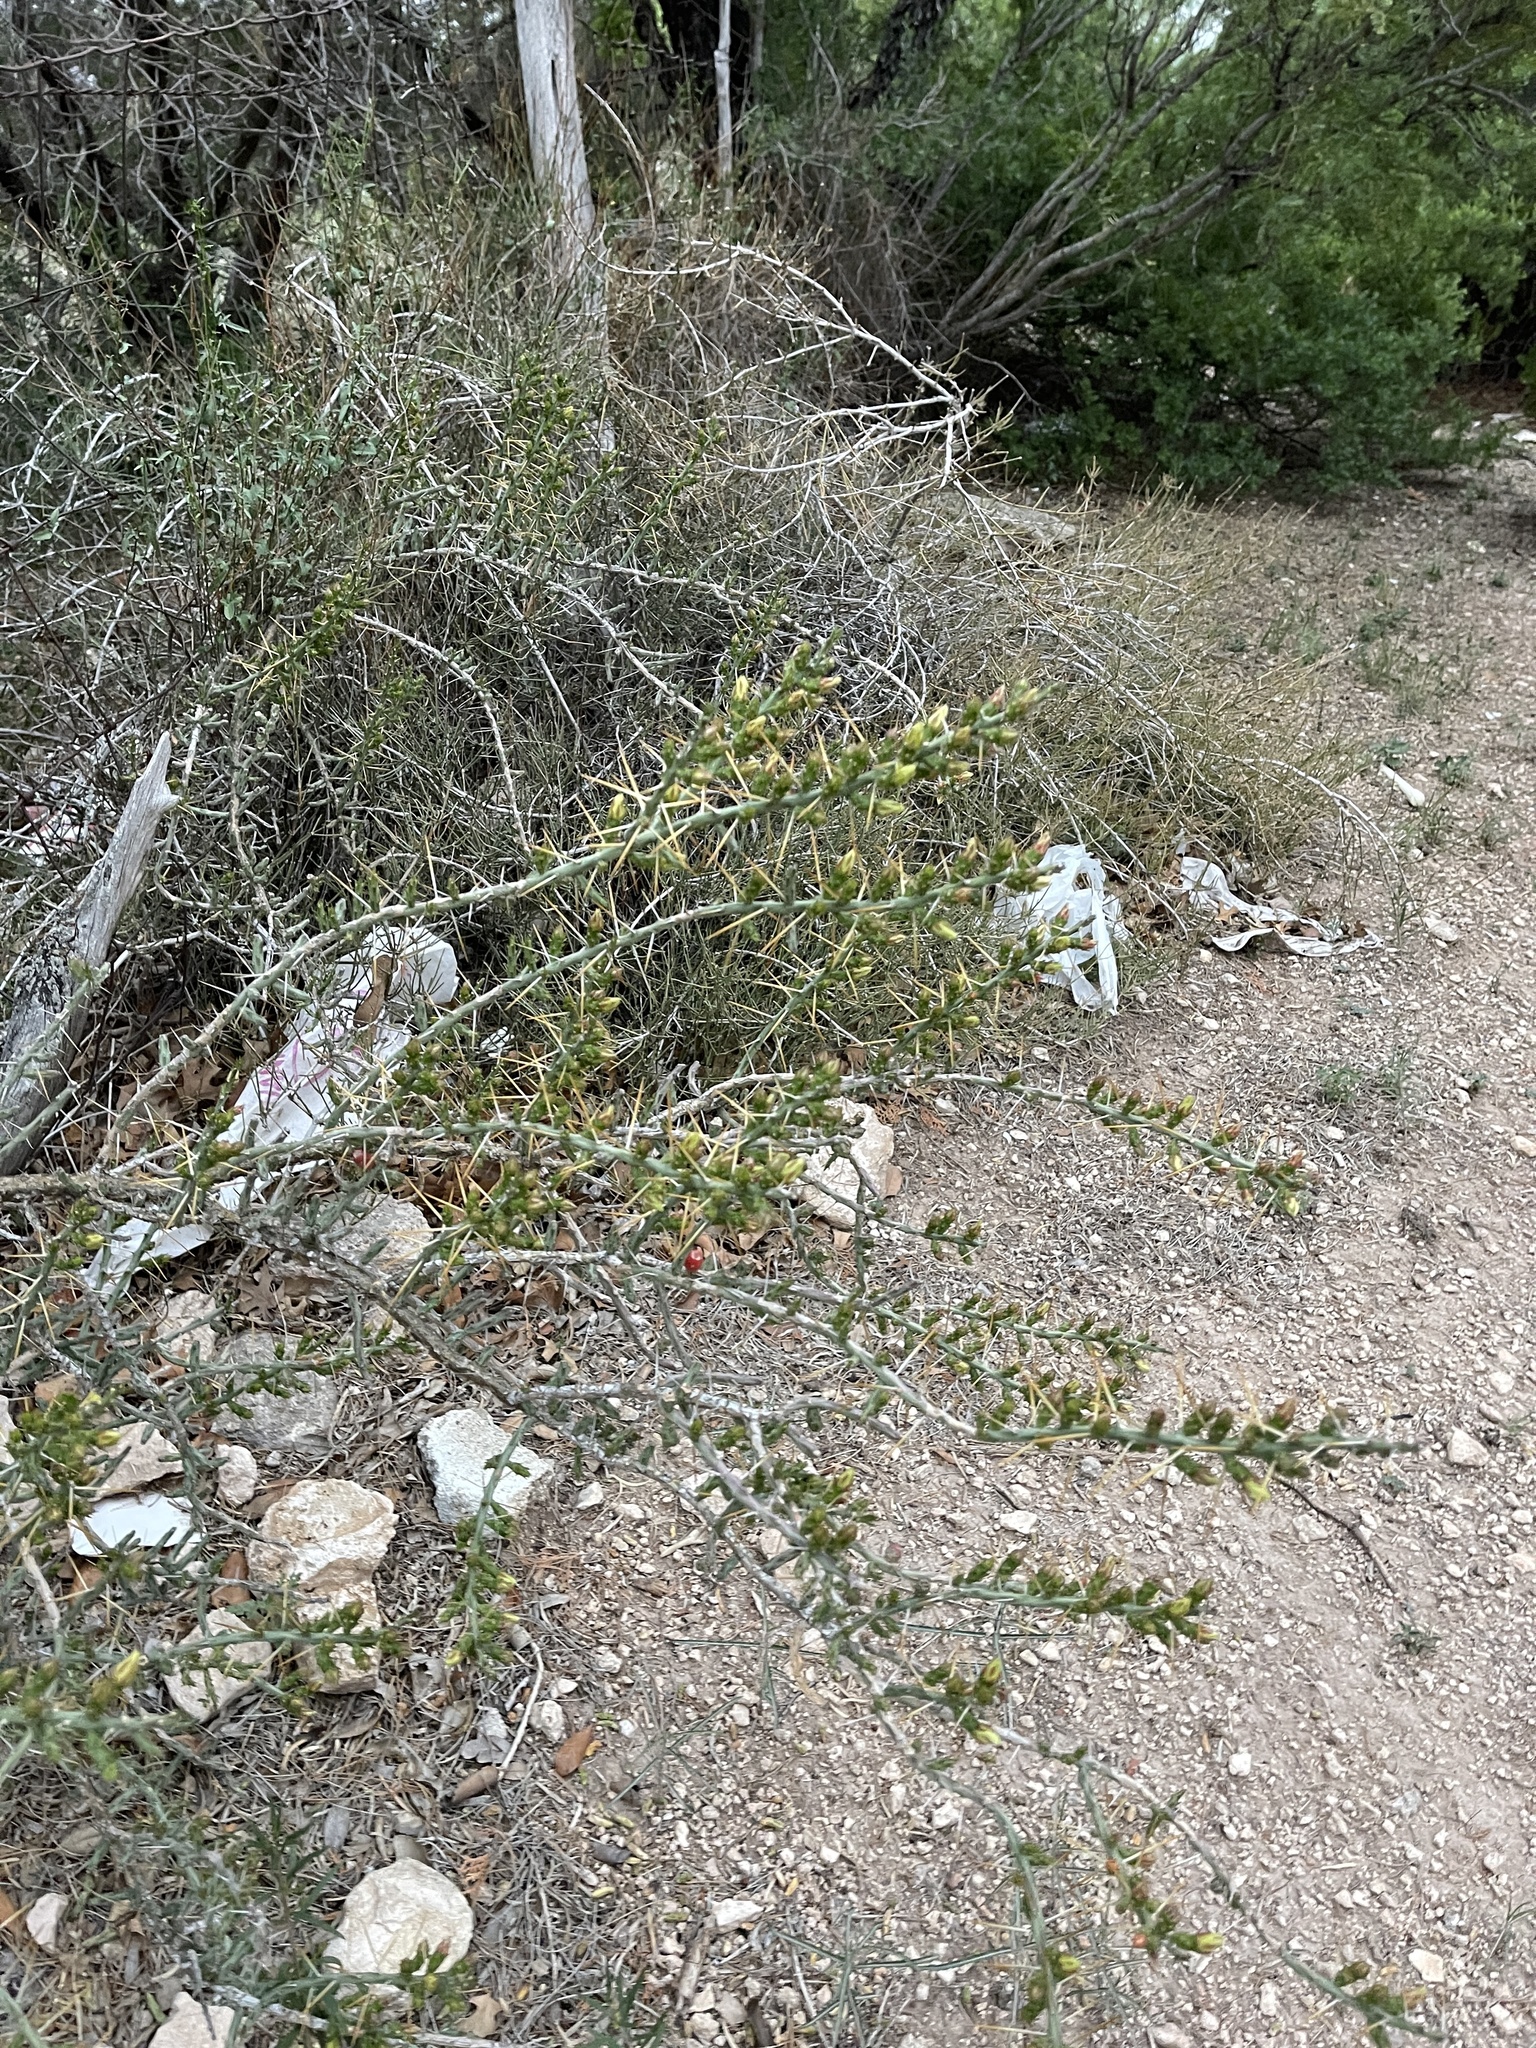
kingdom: Plantae
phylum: Tracheophyta
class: Magnoliopsida
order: Caryophyllales
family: Cactaceae
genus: Cylindropuntia
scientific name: Cylindropuntia leptocaulis
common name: Christmas cactus
